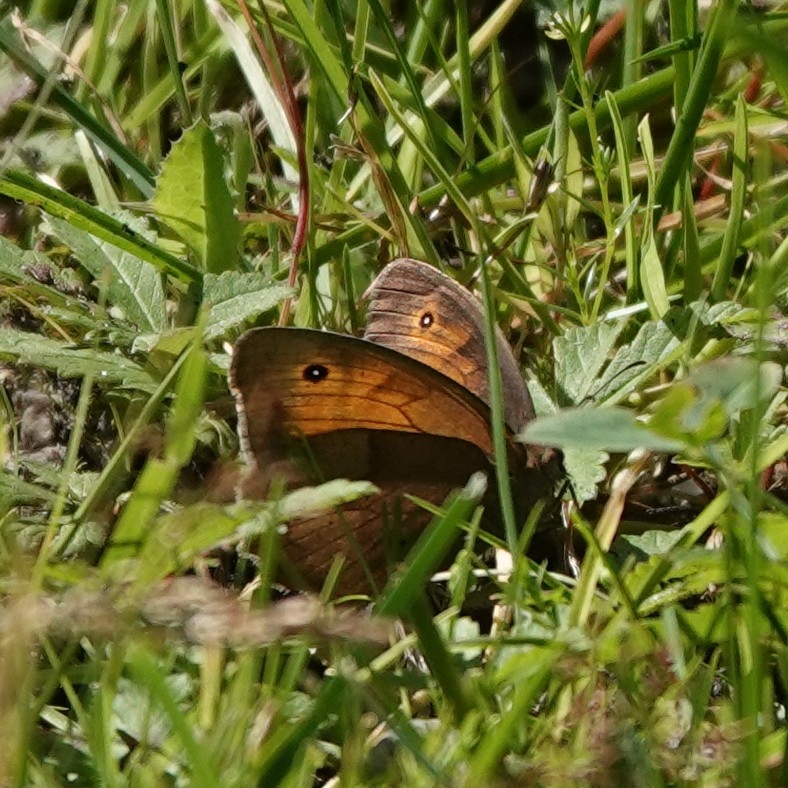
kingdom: Animalia
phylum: Arthropoda
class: Insecta
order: Lepidoptera
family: Nymphalidae
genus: Maniola
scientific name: Maniola jurtina
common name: Meadow brown
